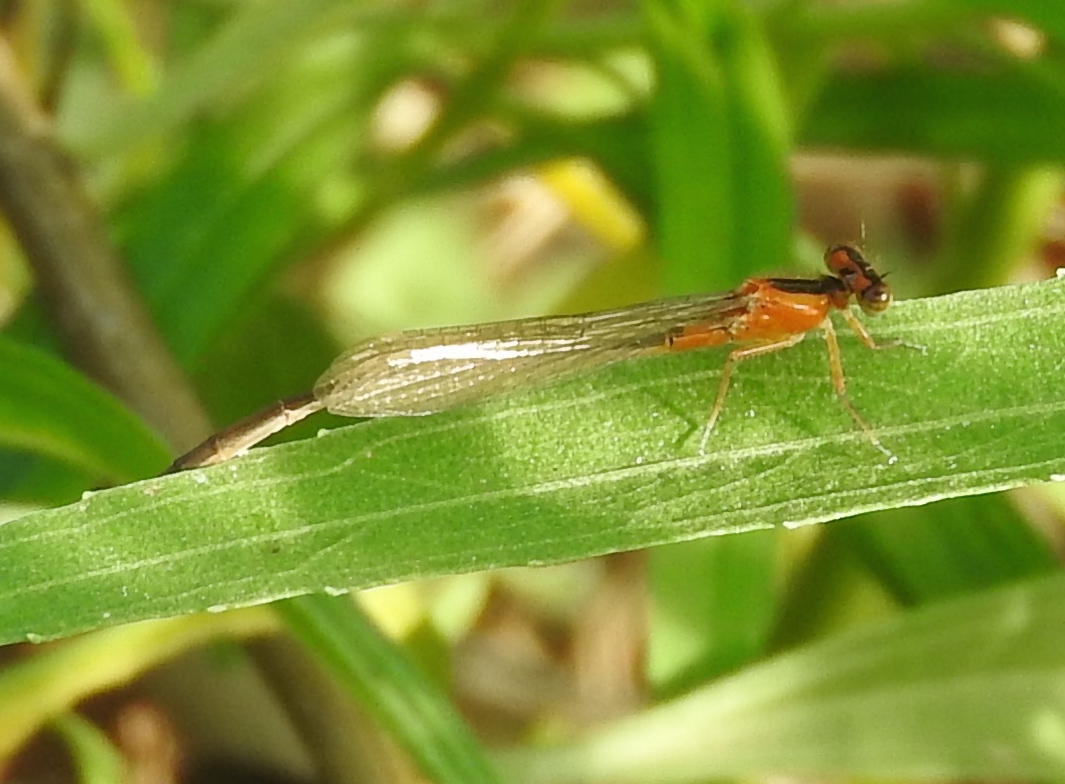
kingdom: Animalia
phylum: Arthropoda
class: Insecta
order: Odonata
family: Coenagrionidae
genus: Ischnura
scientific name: Ischnura ramburii
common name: Rambur's forktail
